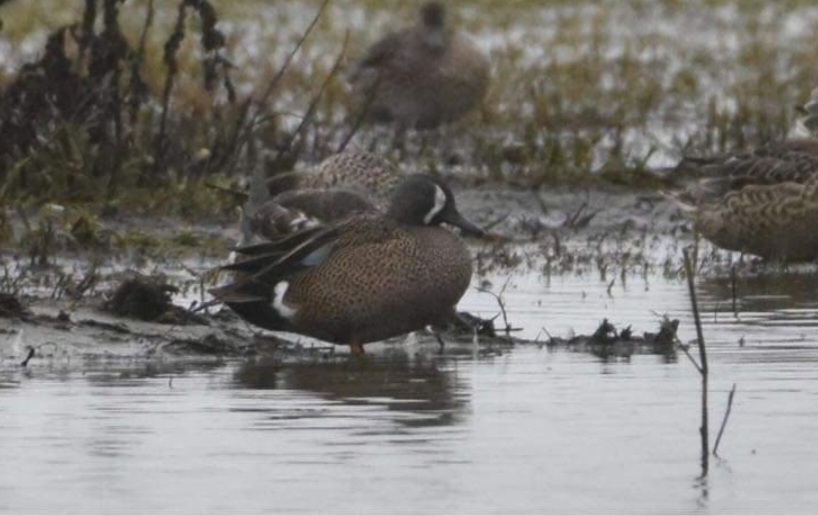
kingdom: Animalia
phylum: Chordata
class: Aves
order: Anseriformes
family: Anatidae
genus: Spatula
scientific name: Spatula discors
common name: Blue-winged teal
